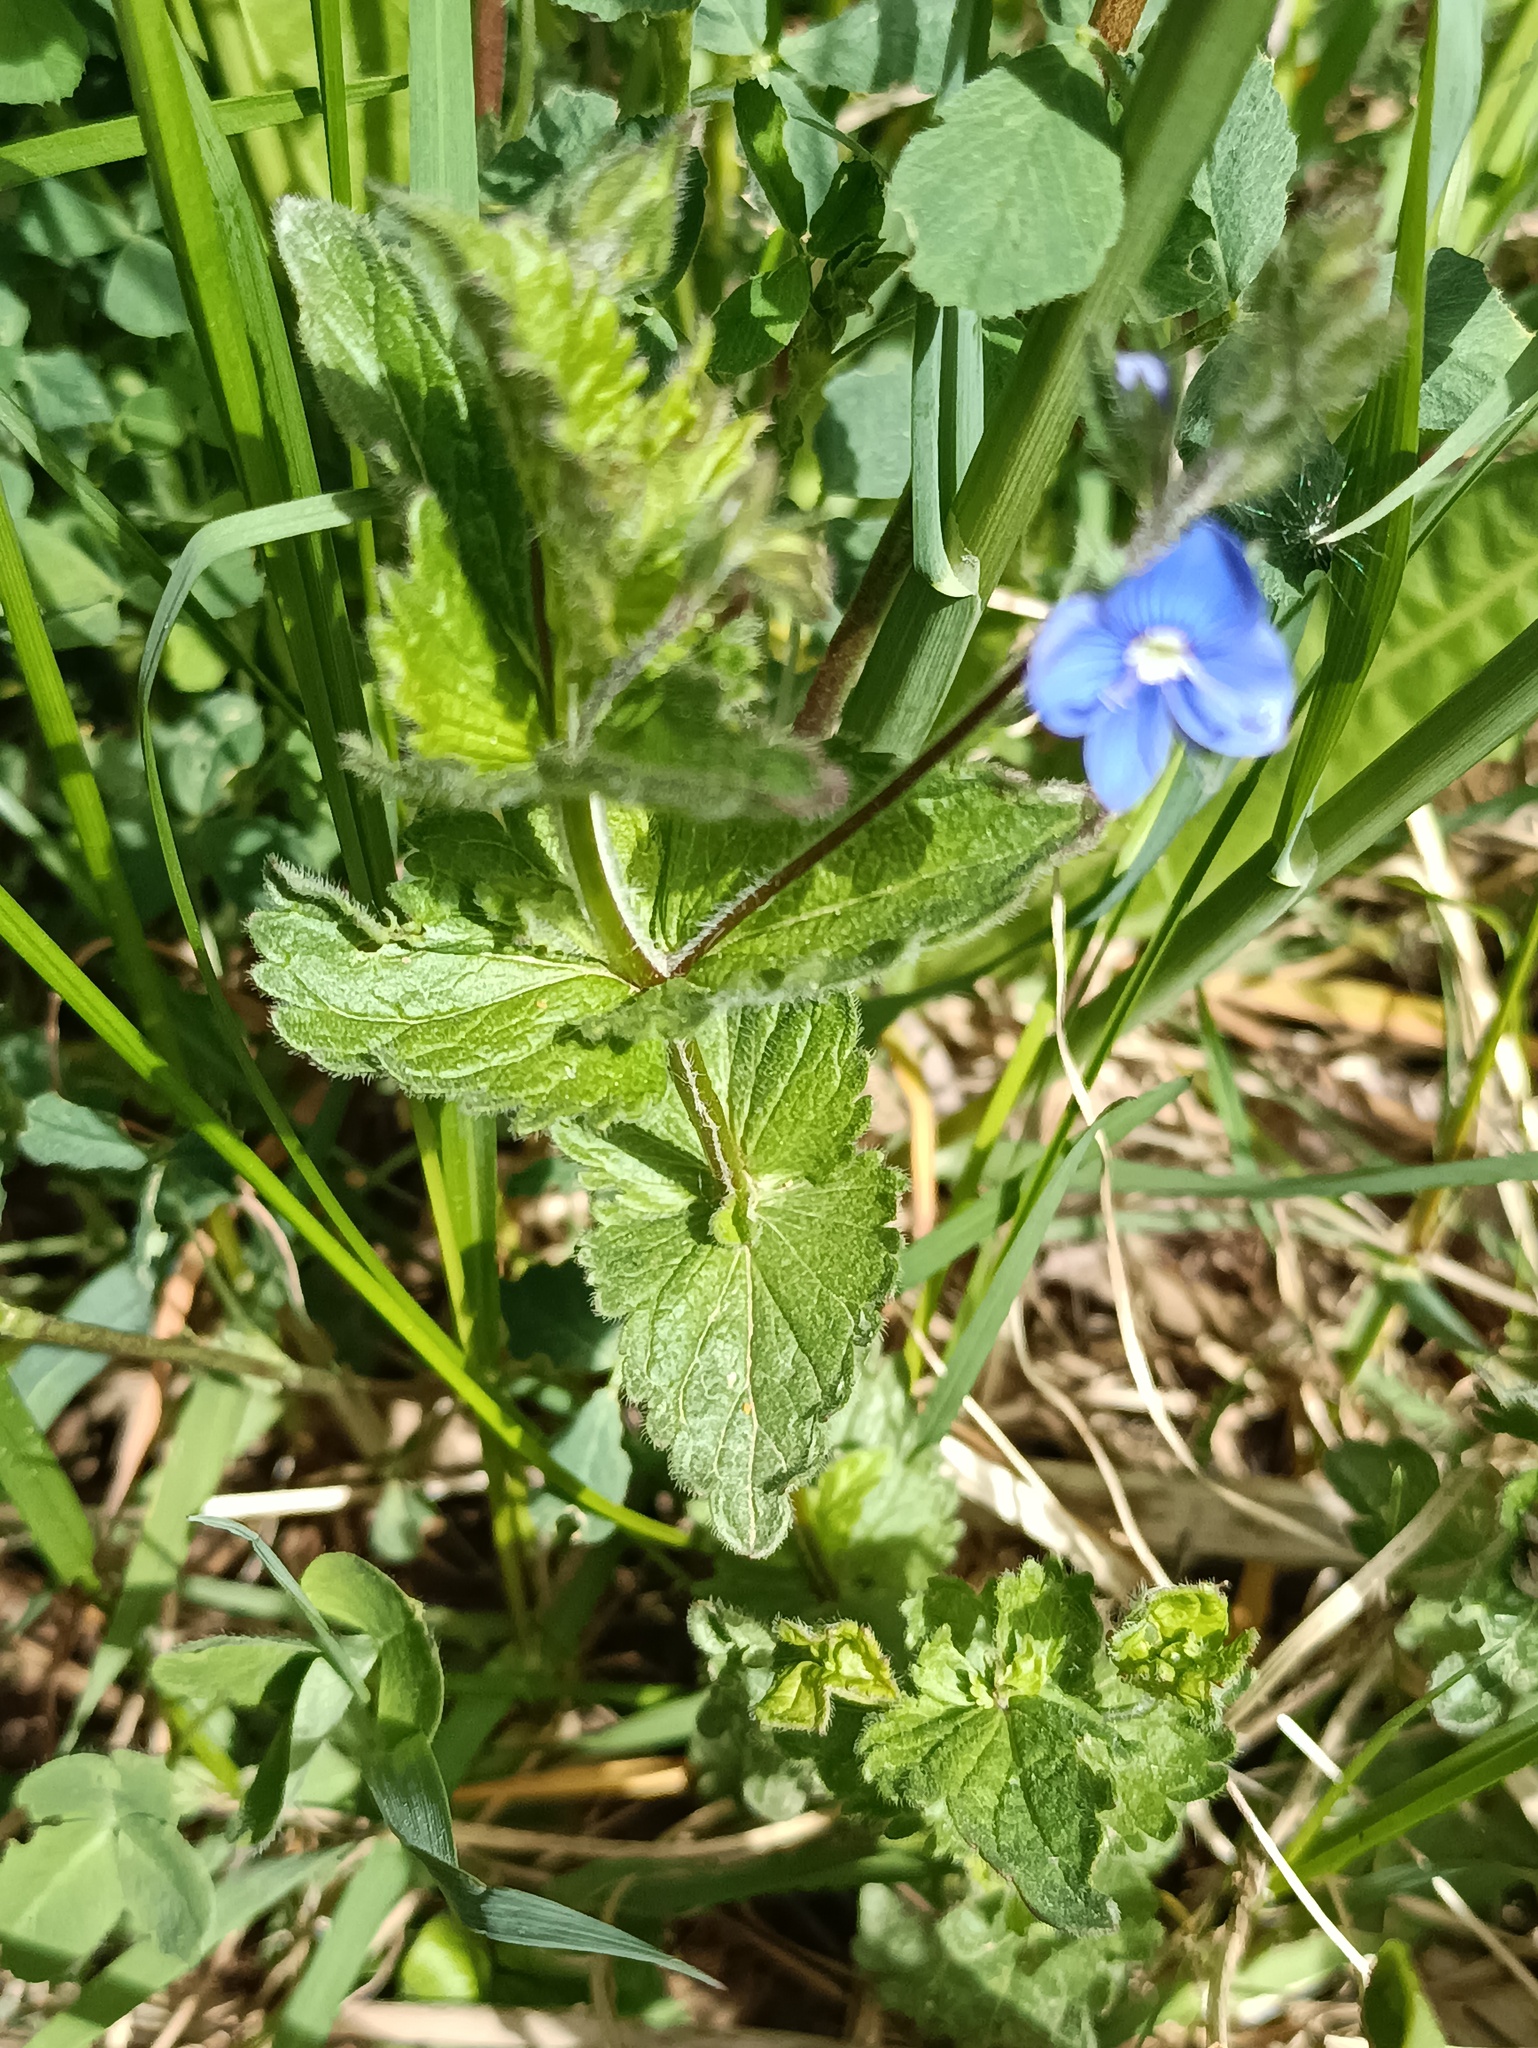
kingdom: Plantae
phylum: Tracheophyta
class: Magnoliopsida
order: Lamiales
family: Plantaginaceae
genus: Veronica
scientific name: Veronica chamaedrys
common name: Germander speedwell
